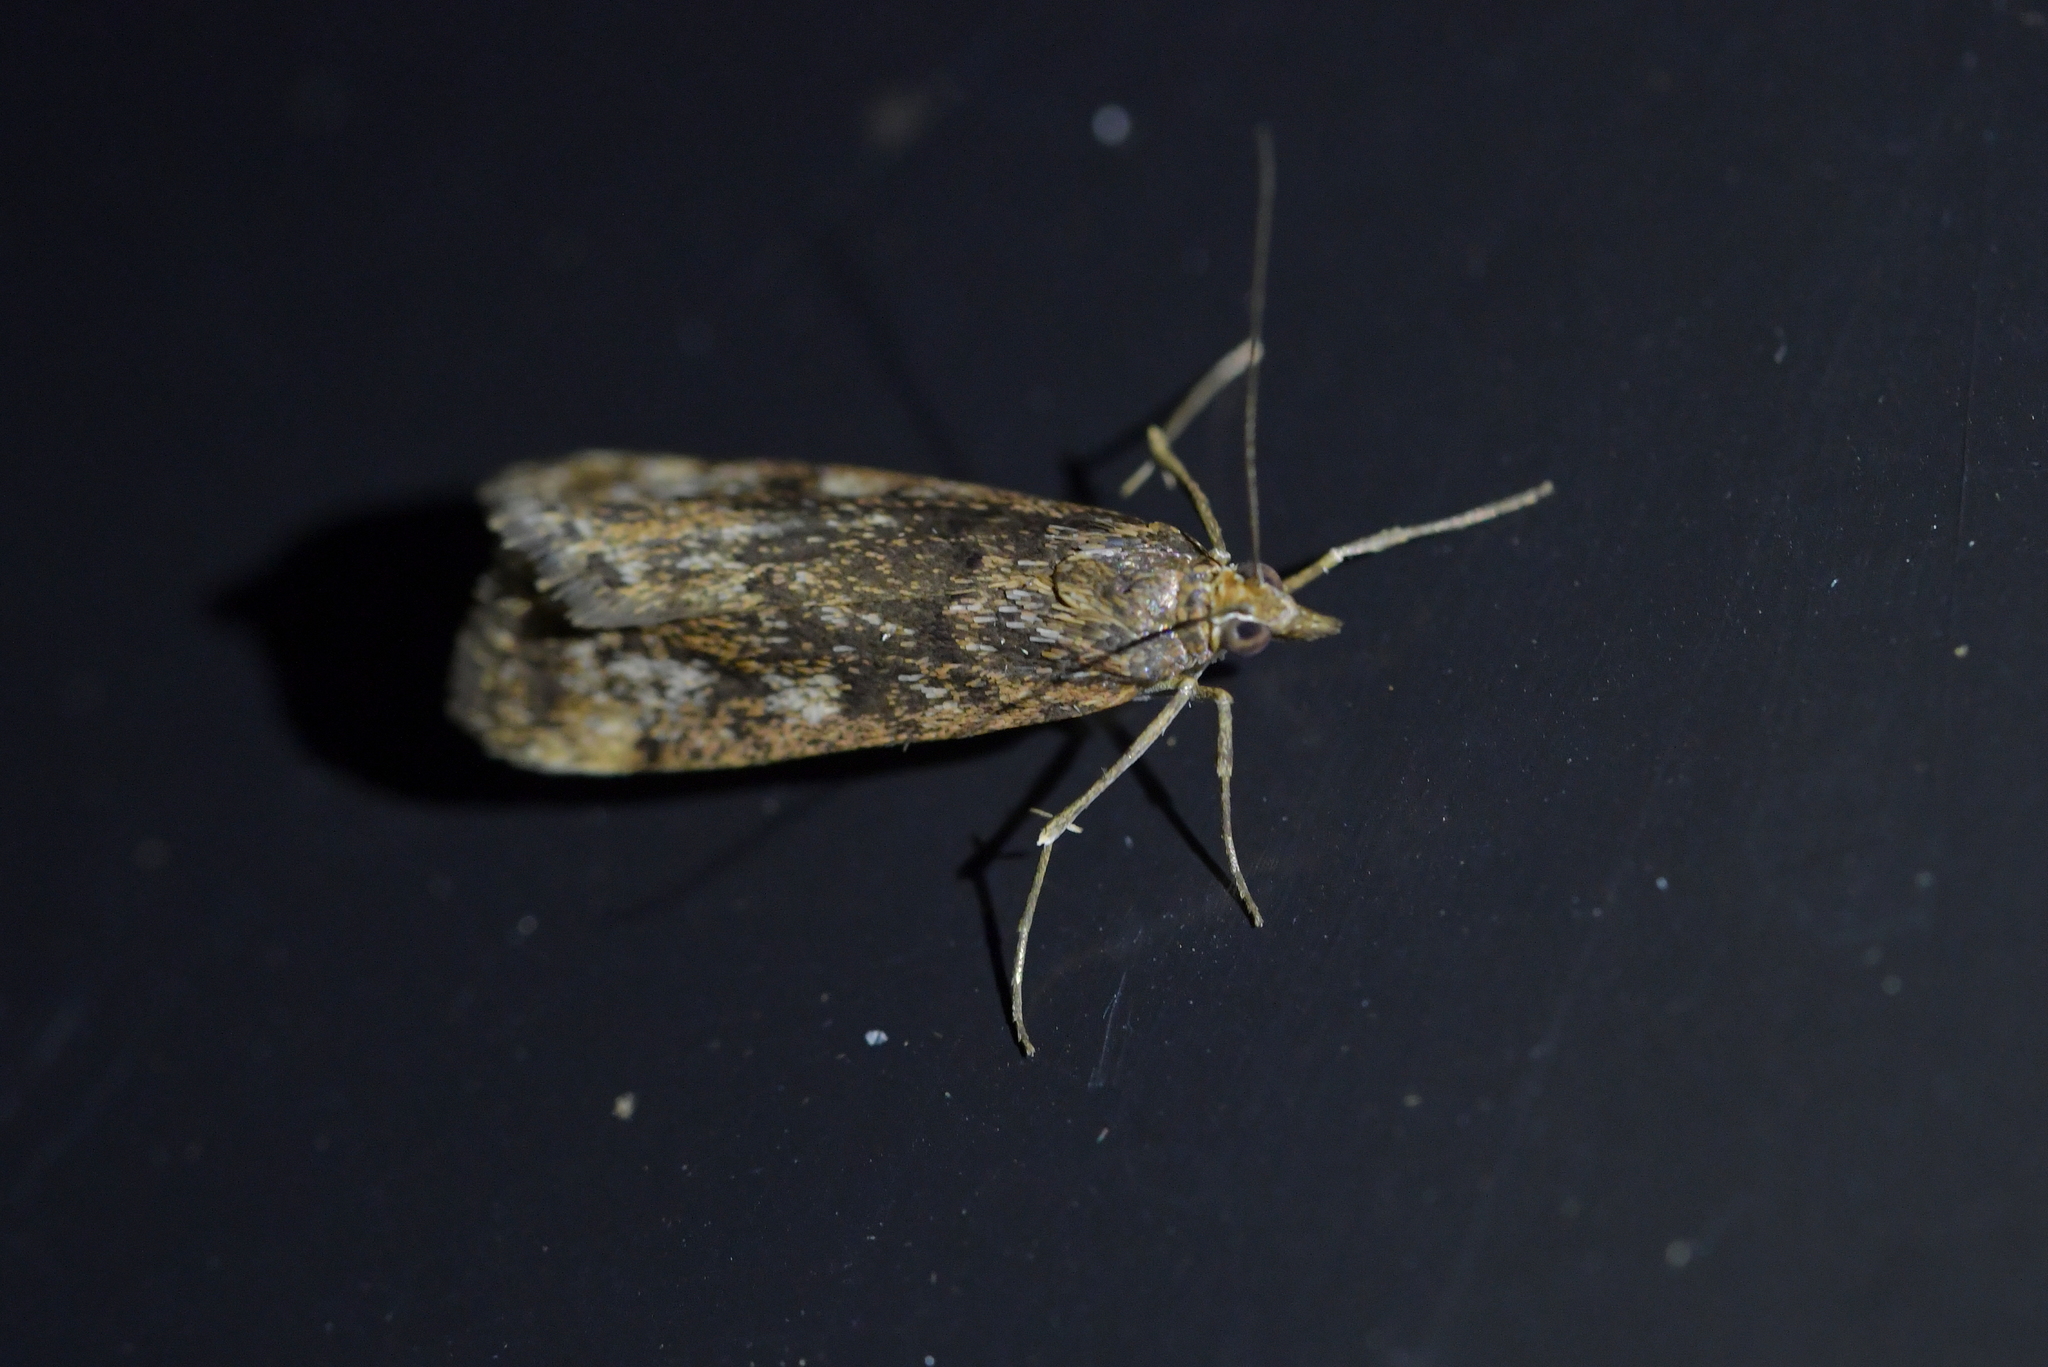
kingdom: Animalia
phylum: Arthropoda
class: Insecta
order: Lepidoptera
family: Crambidae
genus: Achyra
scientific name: Achyra affinitalis
